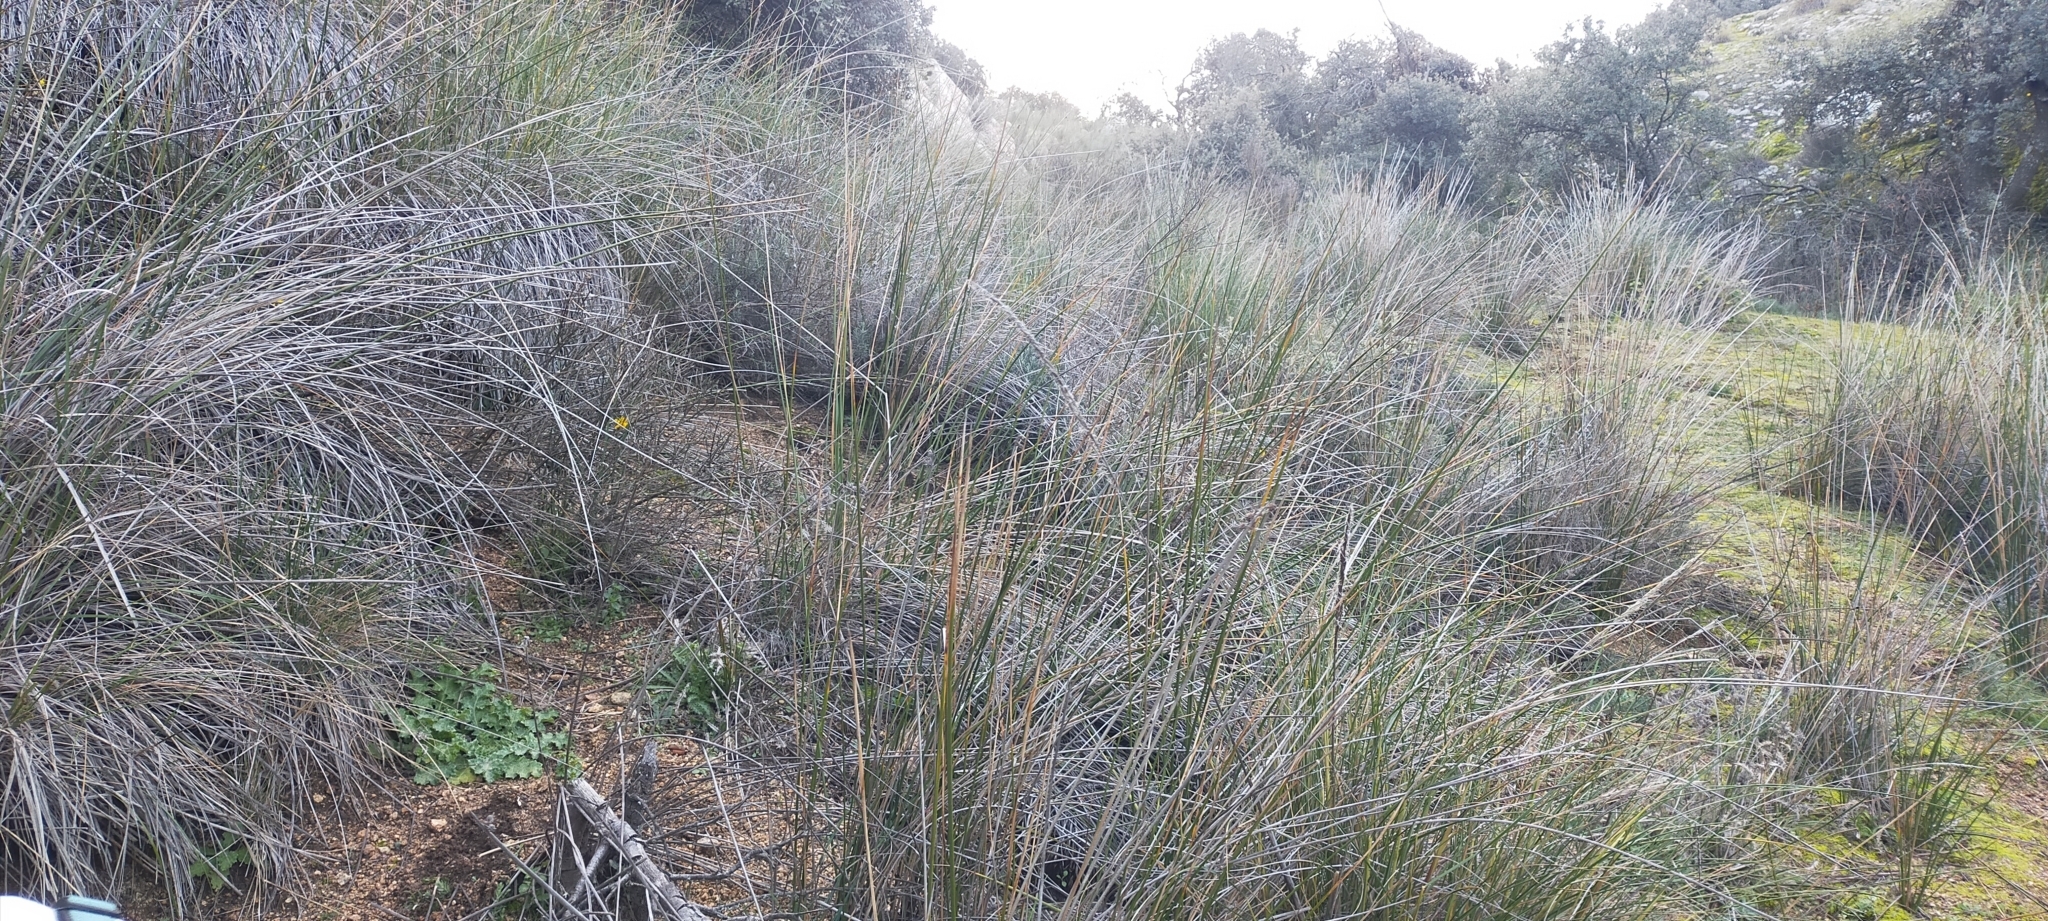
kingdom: Plantae
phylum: Tracheophyta
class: Liliopsida
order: Poales
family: Cyperaceae
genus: Scirpoides
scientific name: Scirpoides holoschoenus
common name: Round-headed club-rush
